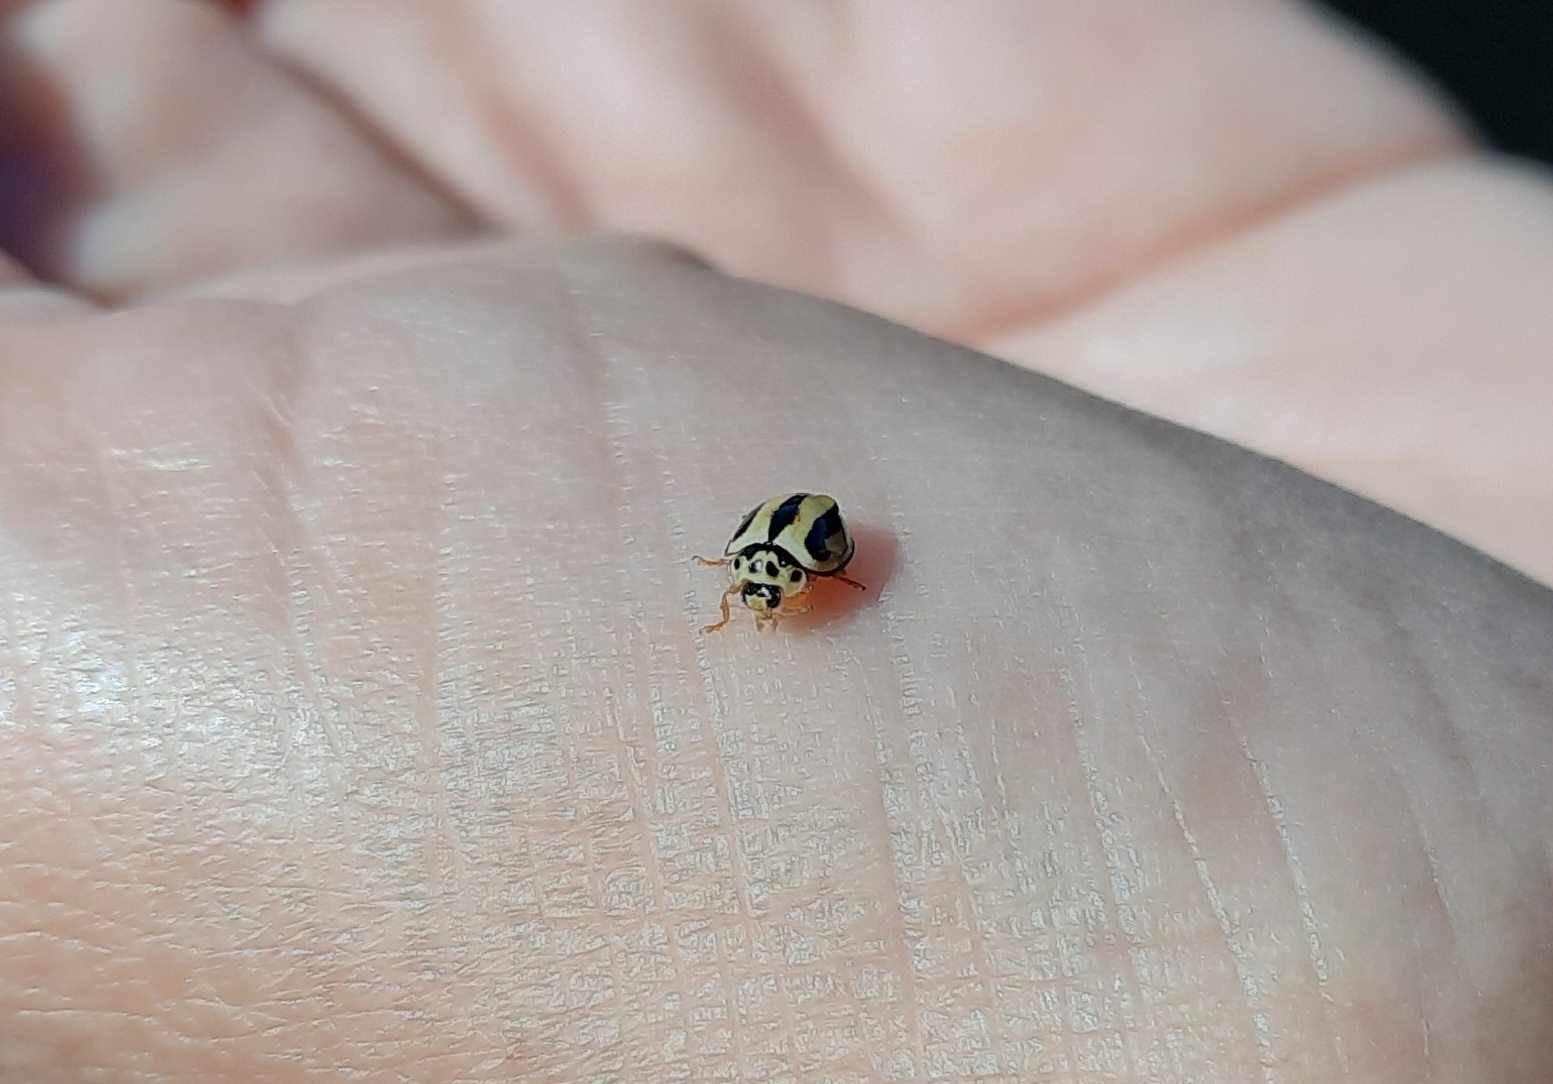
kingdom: Animalia
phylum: Arthropoda
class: Insecta
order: Coleoptera
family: Coccinellidae
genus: Micraspis
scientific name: Micraspis
